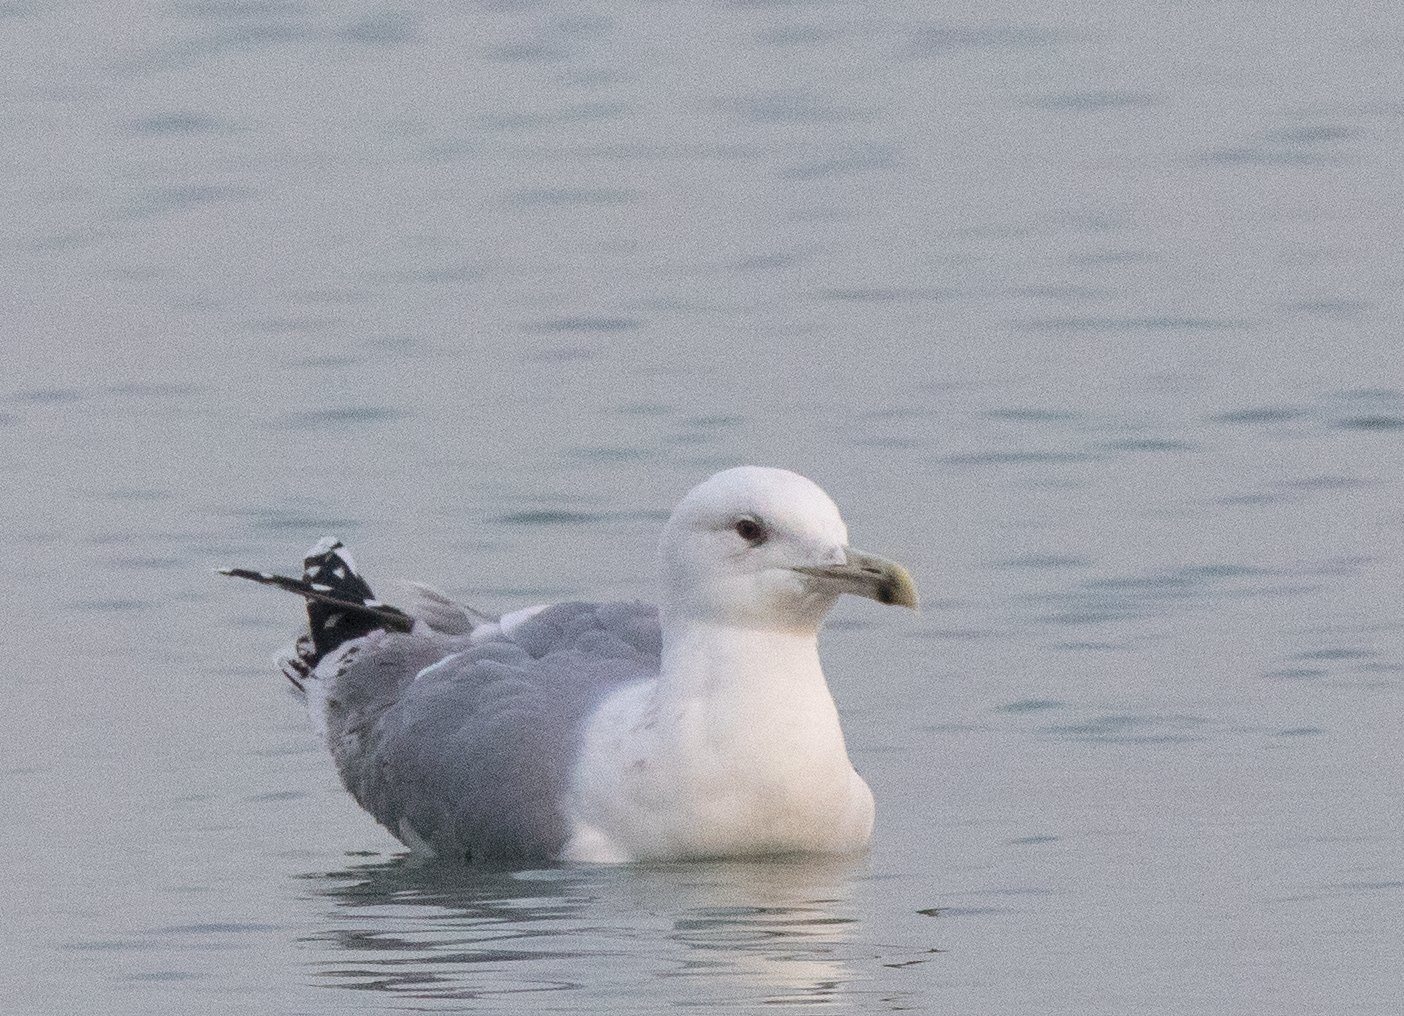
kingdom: Animalia
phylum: Chordata
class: Aves
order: Charadriiformes
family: Laridae
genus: Larus
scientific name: Larus cachinnans
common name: Caspian gull
